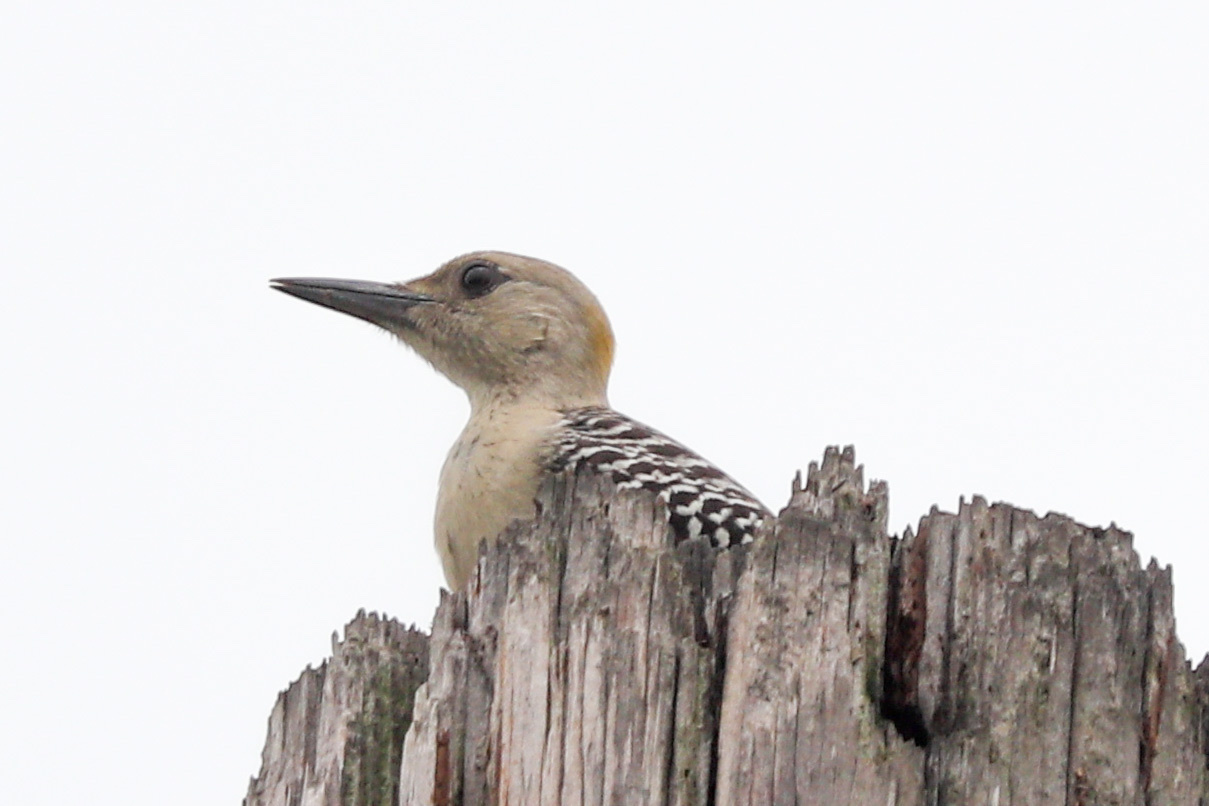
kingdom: Animalia
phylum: Chordata
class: Aves
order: Piciformes
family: Picidae
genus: Melanerpes
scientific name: Melanerpes aurifrons
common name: Golden-fronted woodpecker
